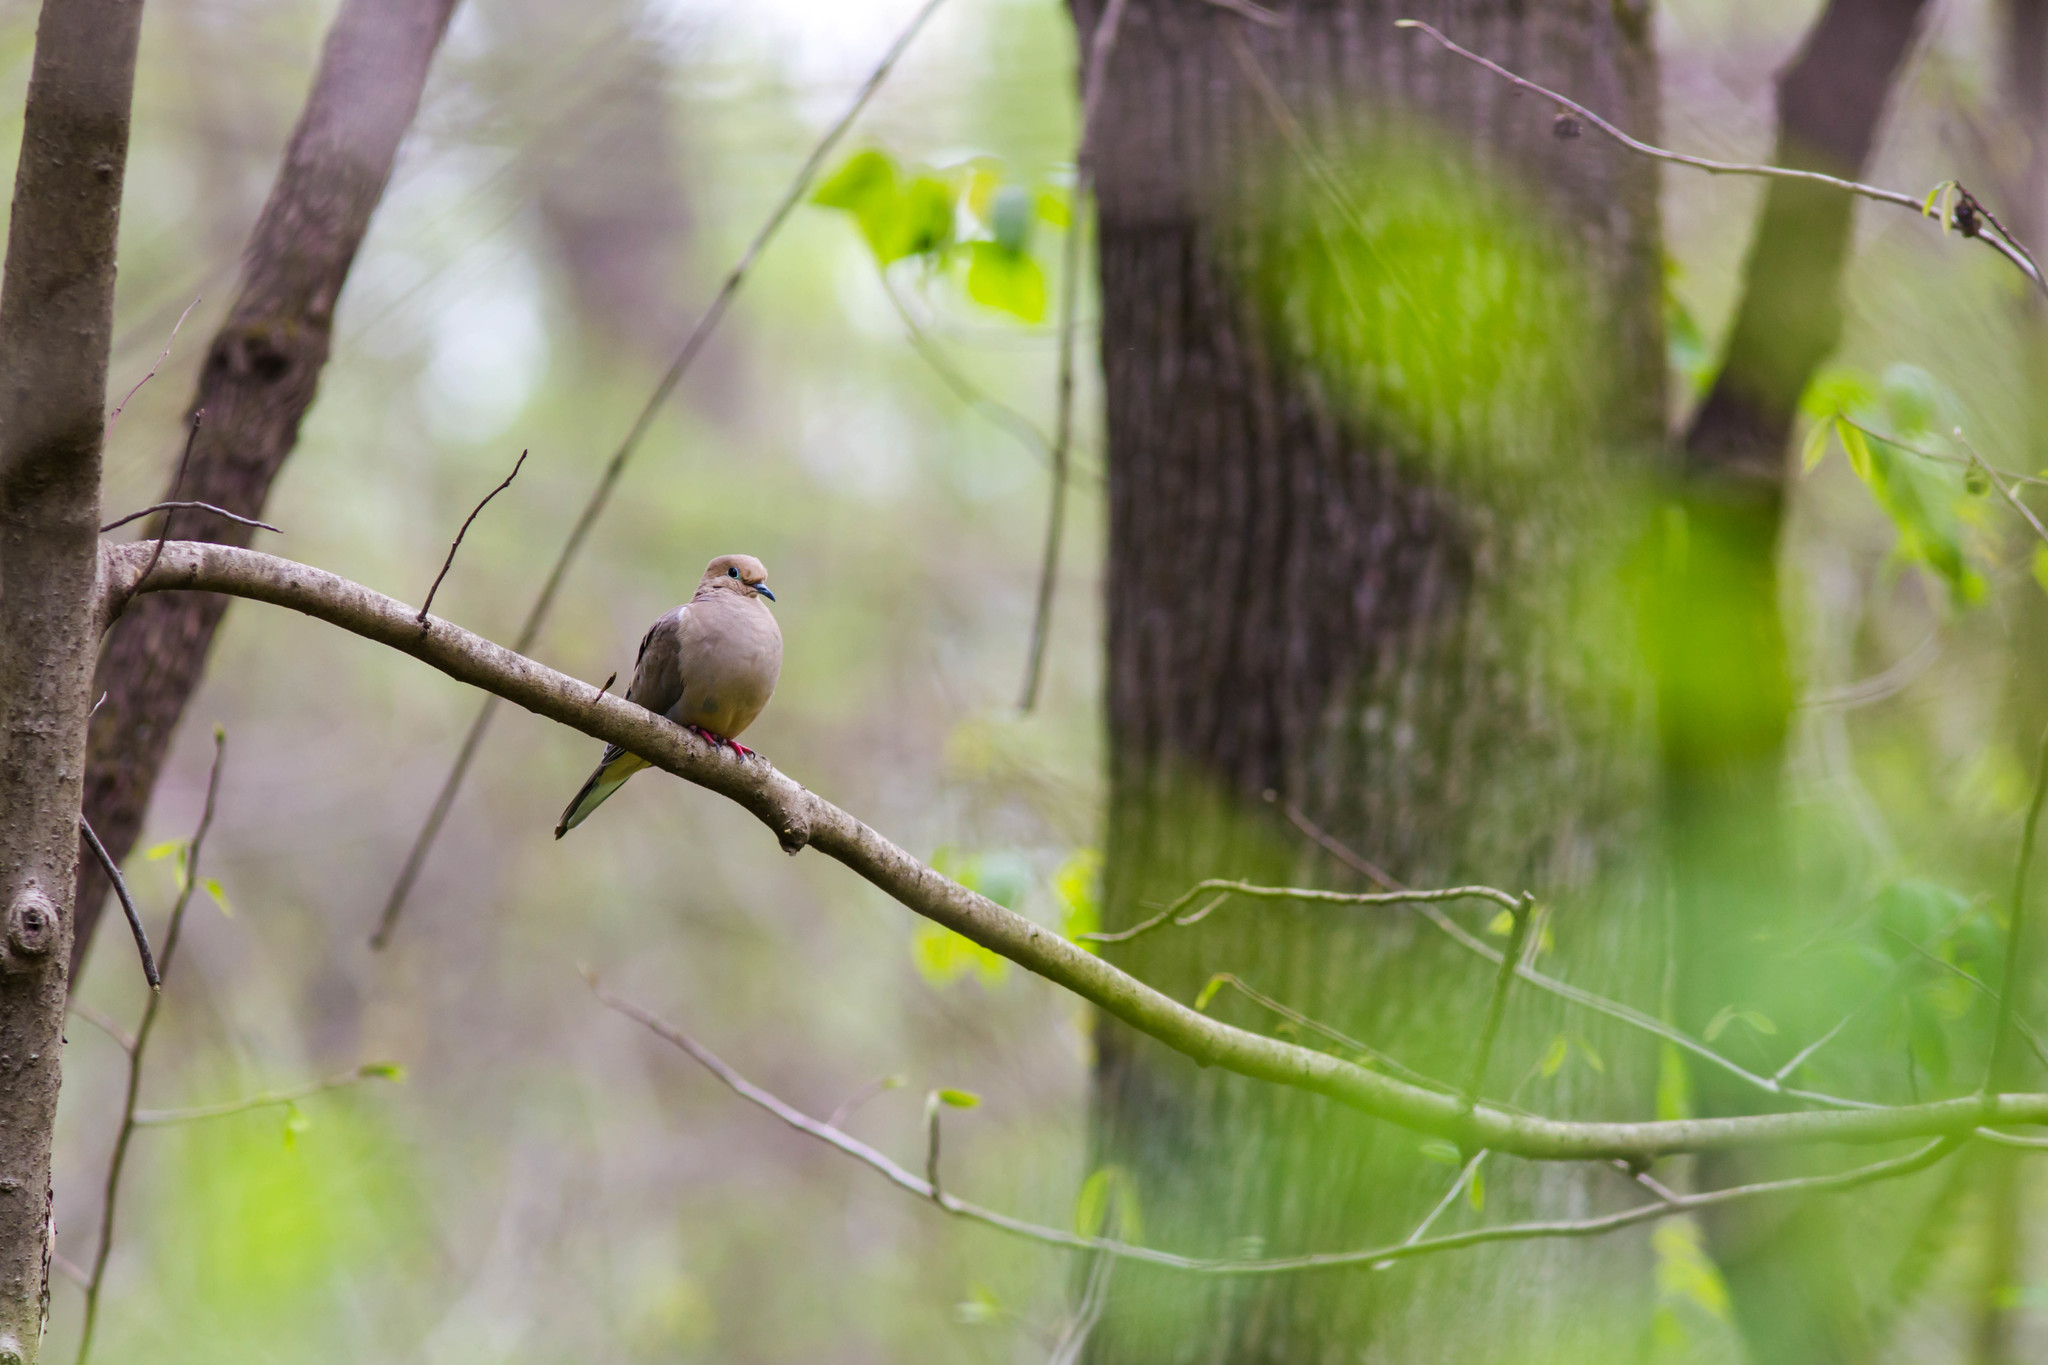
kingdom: Animalia
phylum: Chordata
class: Aves
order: Columbiformes
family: Columbidae
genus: Zenaida
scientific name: Zenaida macroura
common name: Mourning dove
